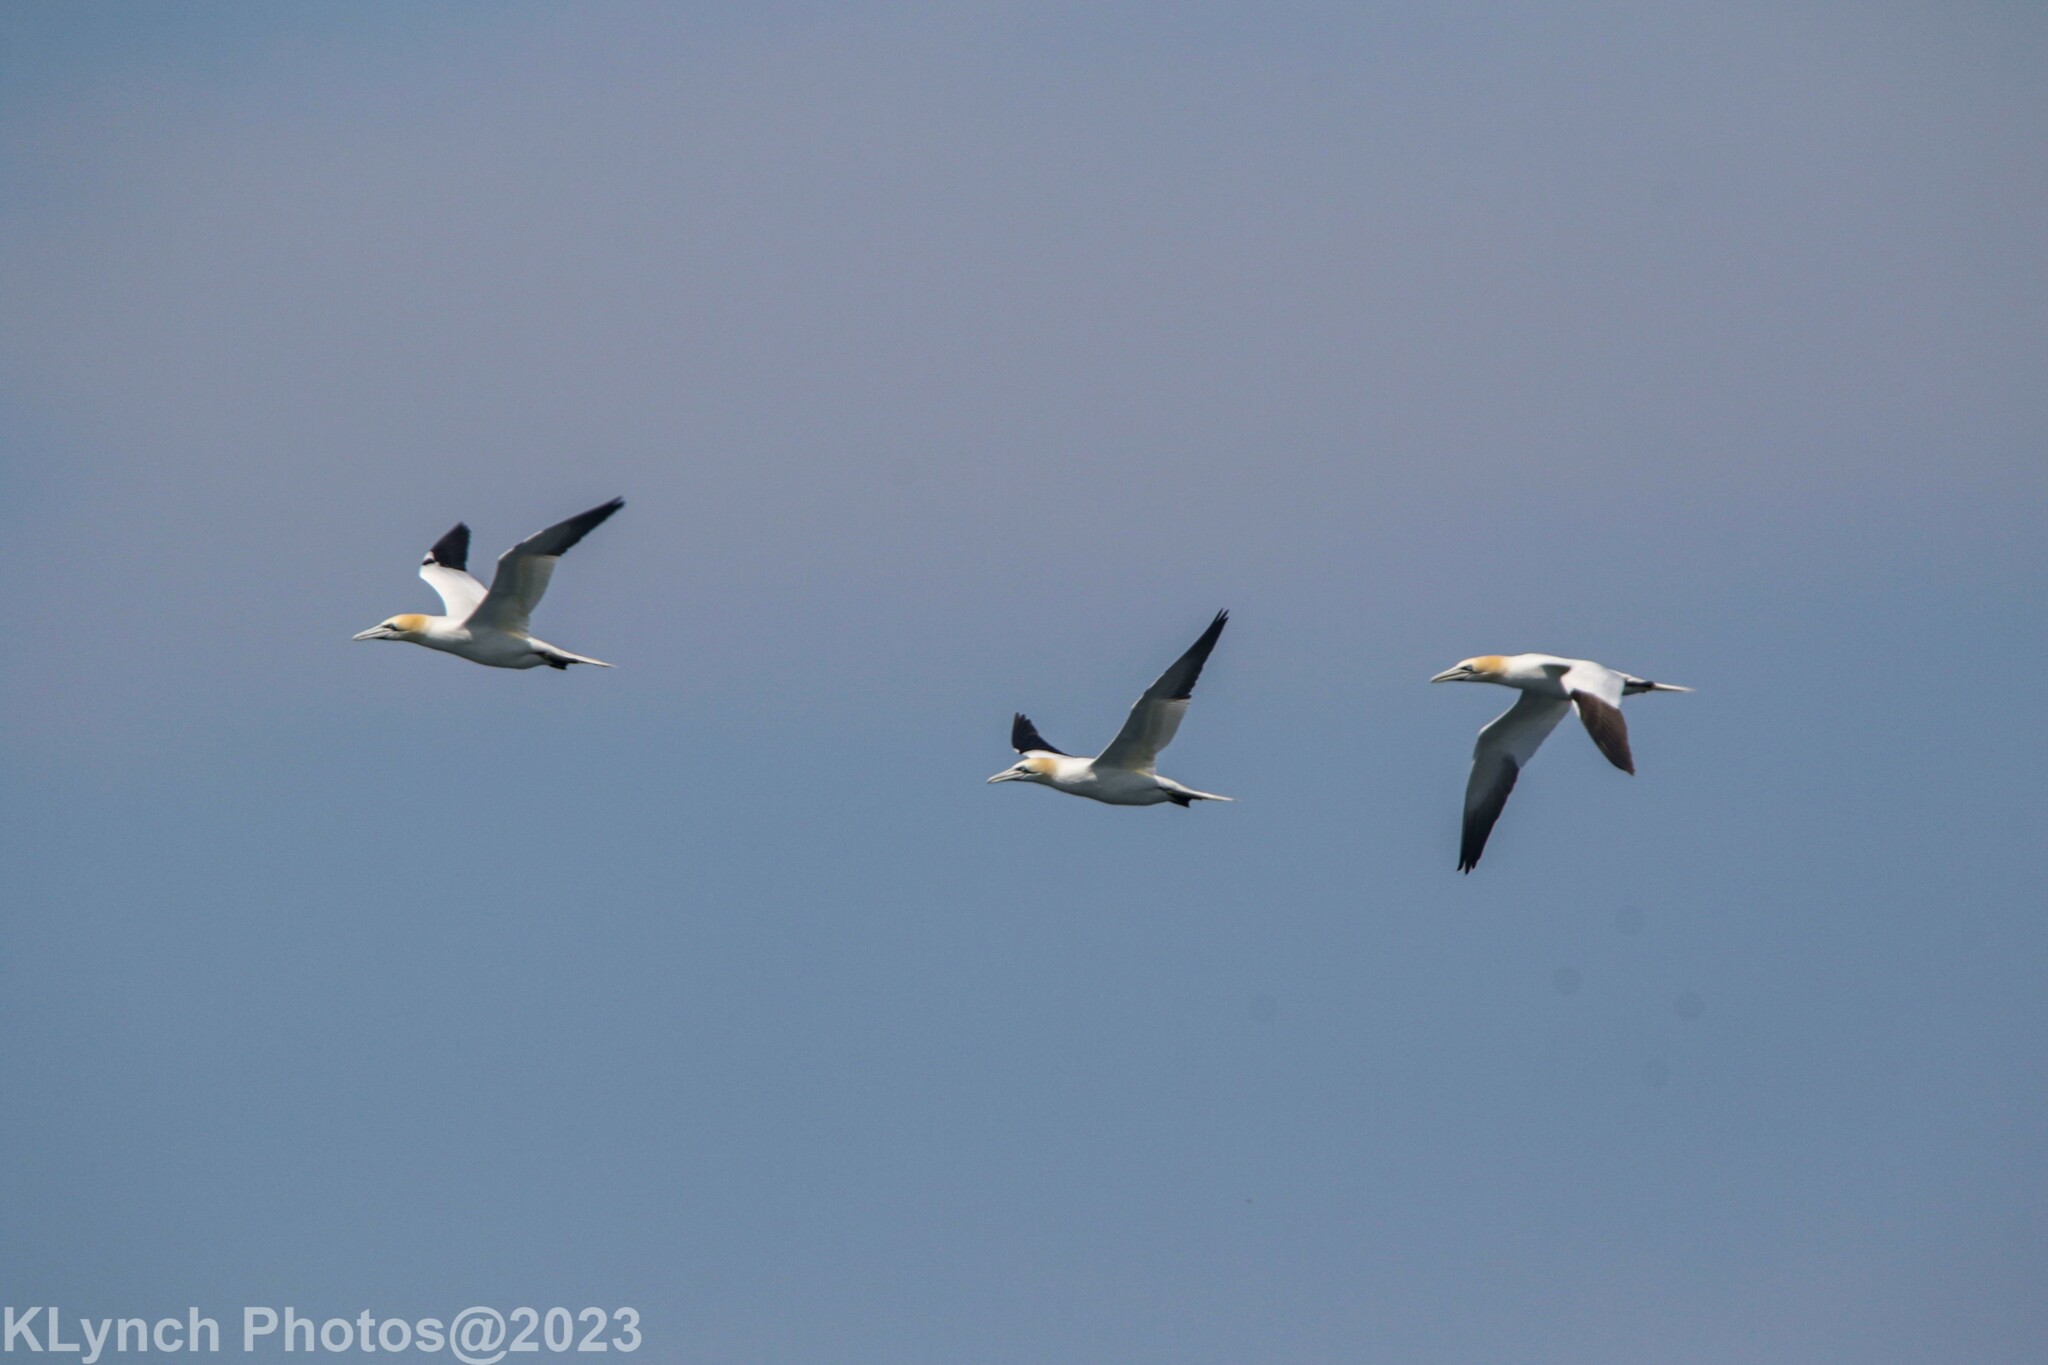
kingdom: Animalia
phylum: Chordata
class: Aves
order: Suliformes
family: Sulidae
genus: Morus
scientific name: Morus bassanus
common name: Northern gannet
